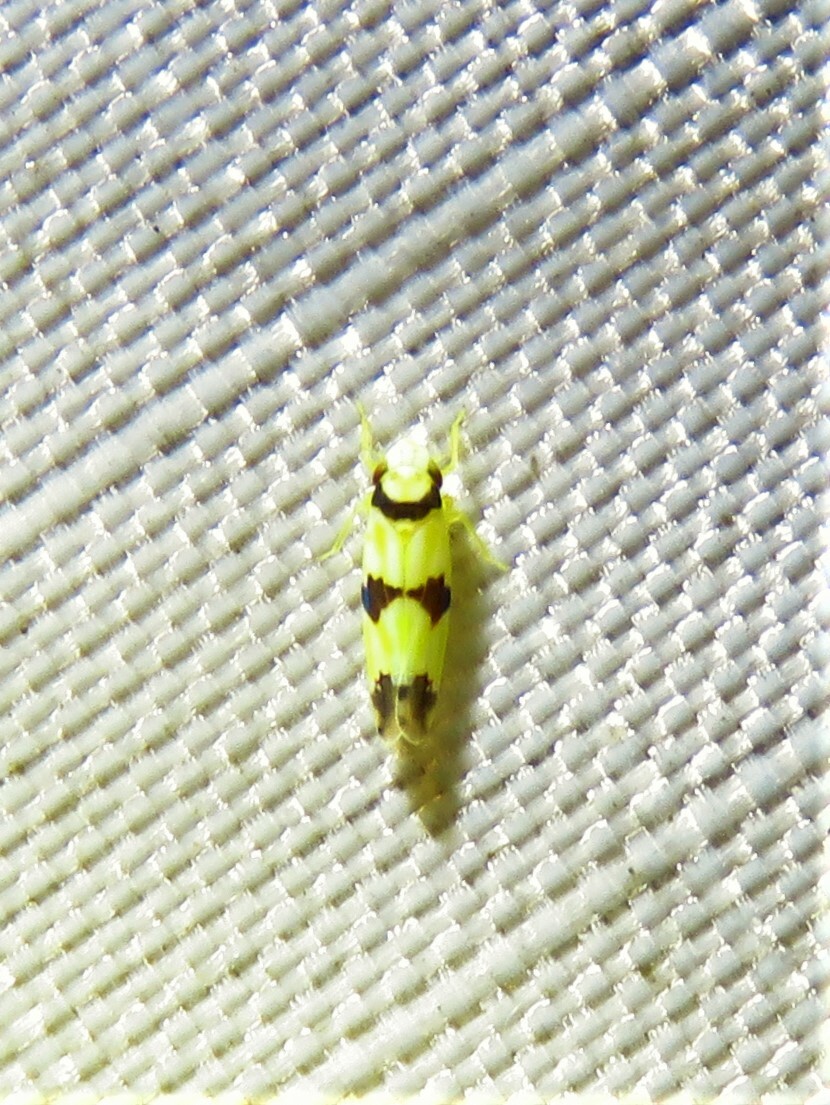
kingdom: Animalia
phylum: Arthropoda
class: Insecta
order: Hemiptera
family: Cicadellidae
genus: Erythroneura
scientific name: Erythroneura cymbium
